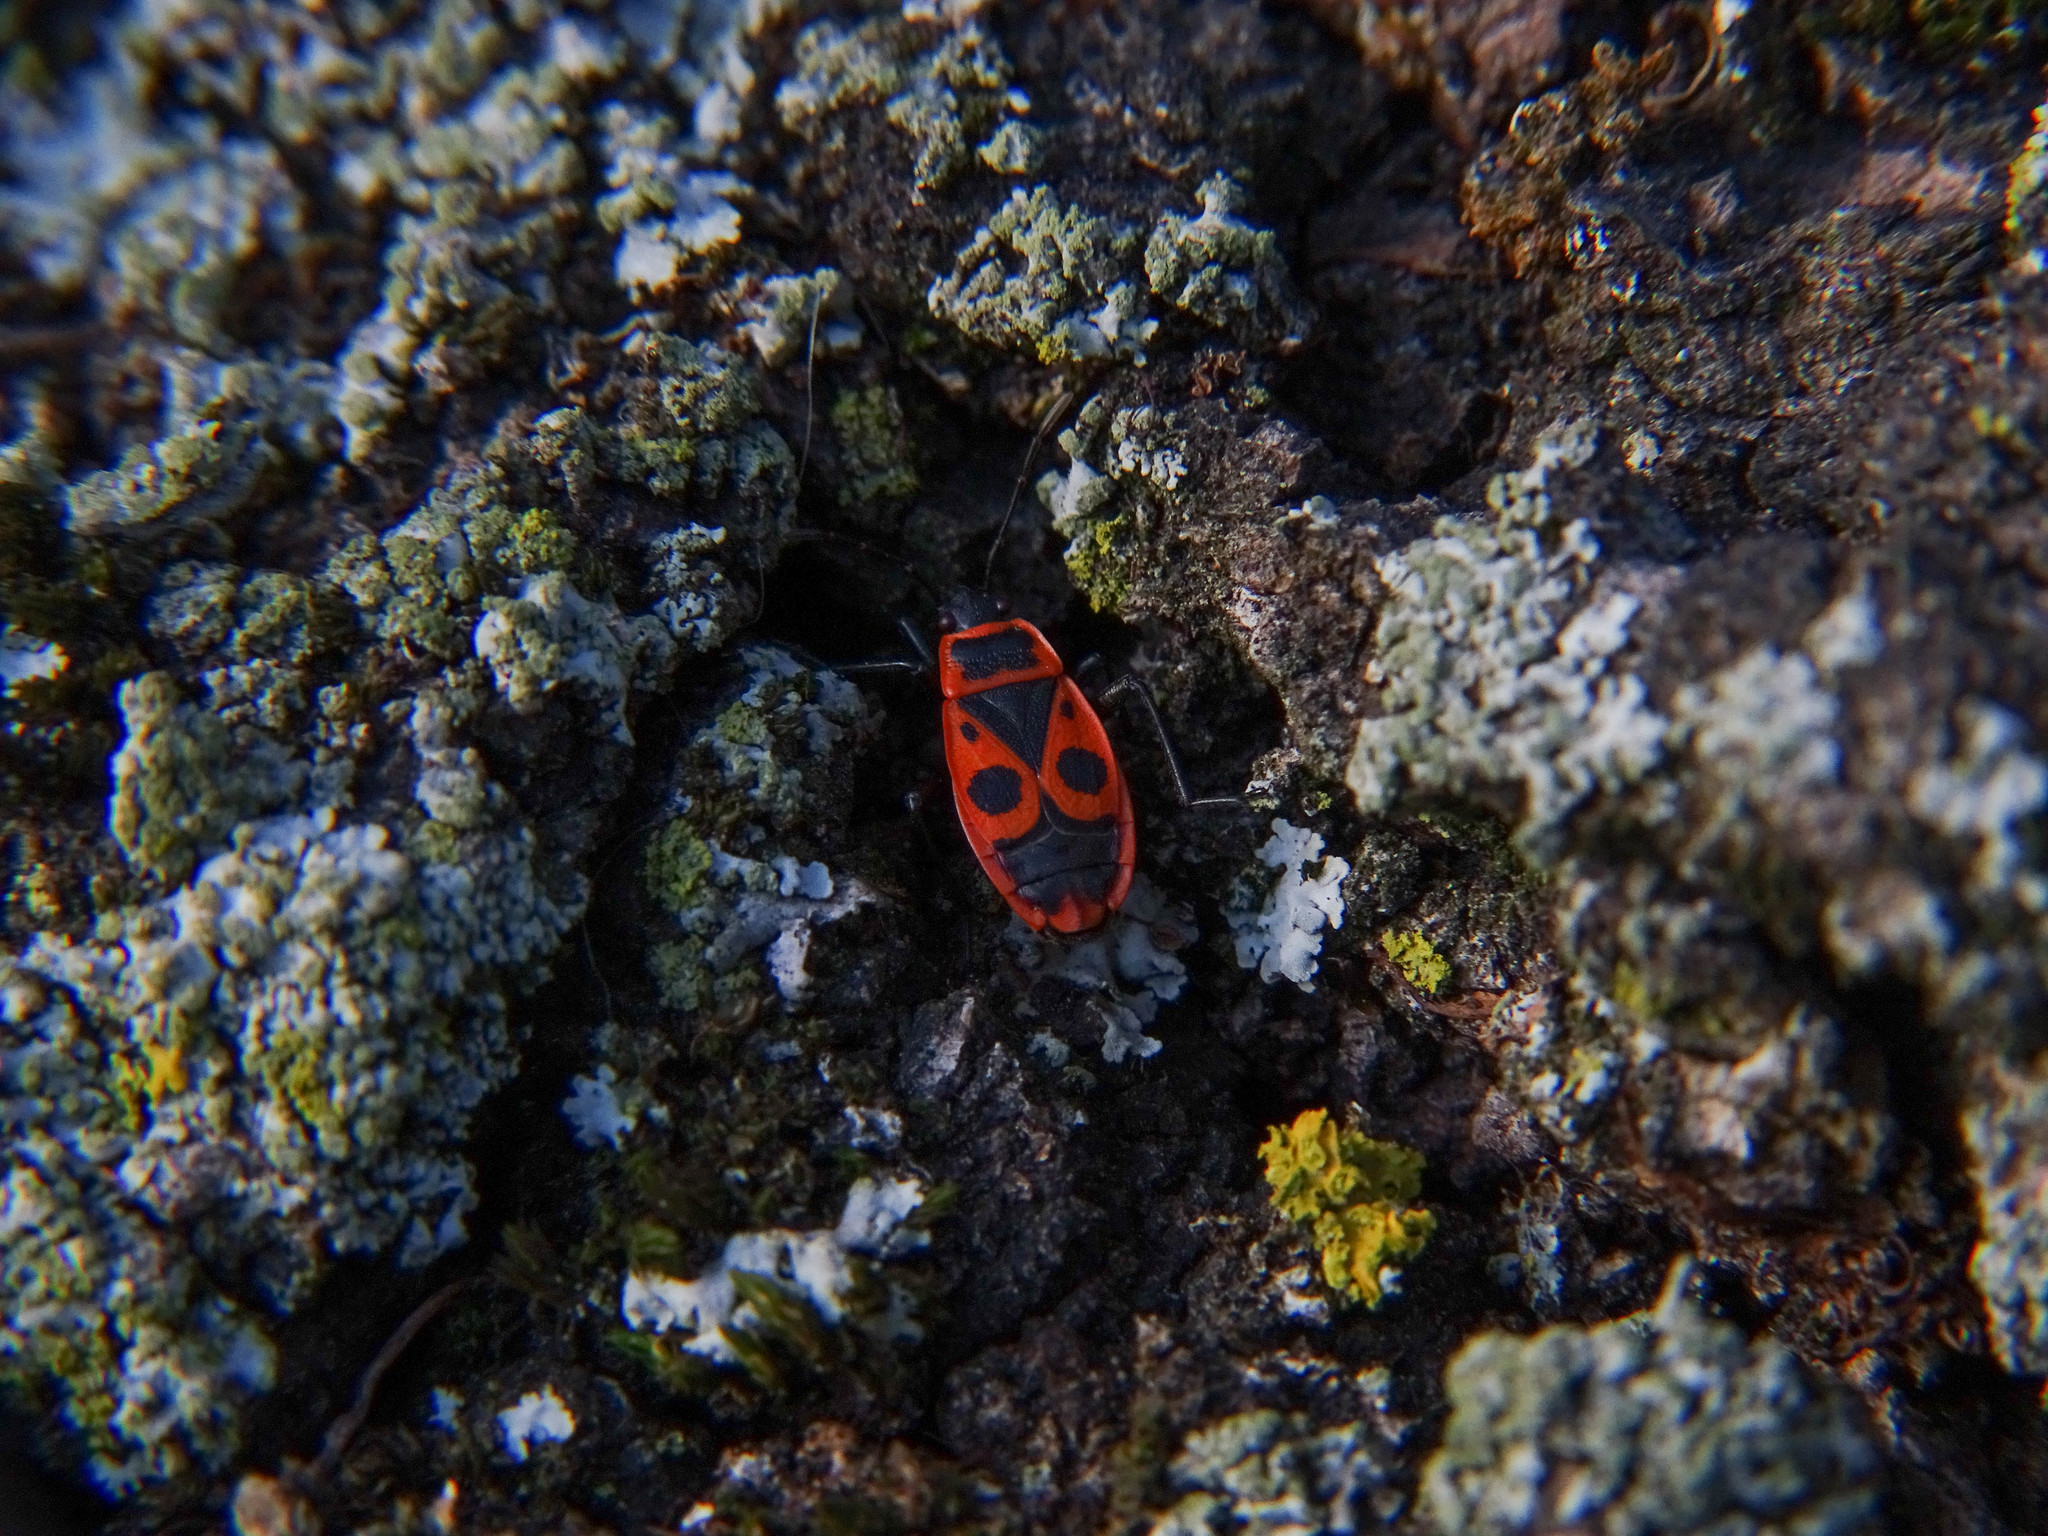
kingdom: Animalia
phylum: Arthropoda
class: Insecta
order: Hemiptera
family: Pyrrhocoridae
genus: Pyrrhocoris
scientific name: Pyrrhocoris apterus
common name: Firebug
